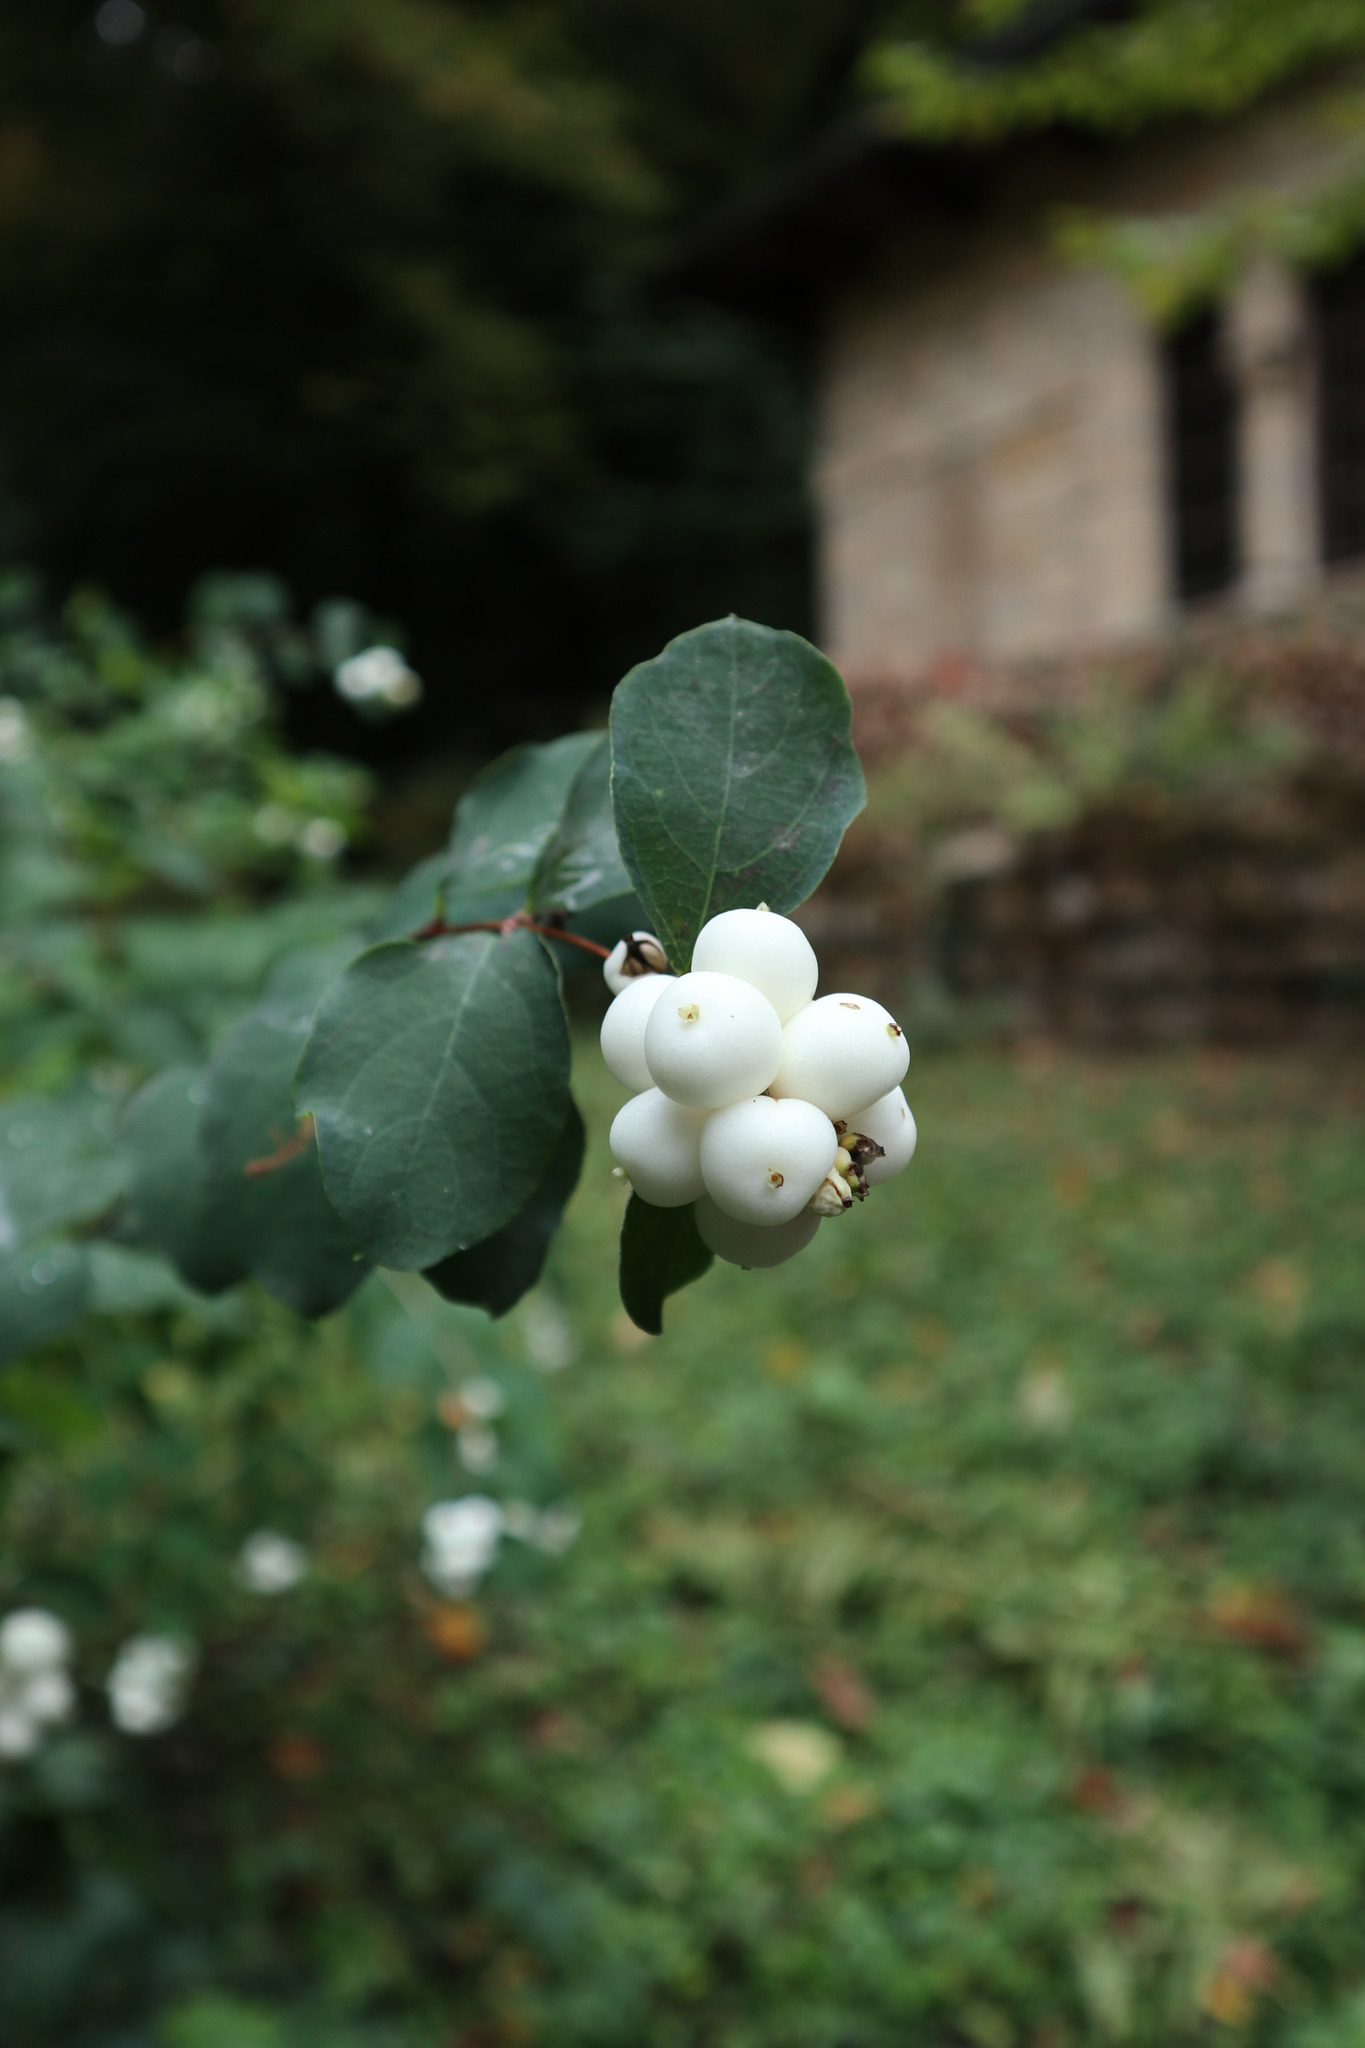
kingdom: Plantae
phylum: Tracheophyta
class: Magnoliopsida
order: Dipsacales
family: Caprifoliaceae
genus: Symphoricarpos
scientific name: Symphoricarpos albus
